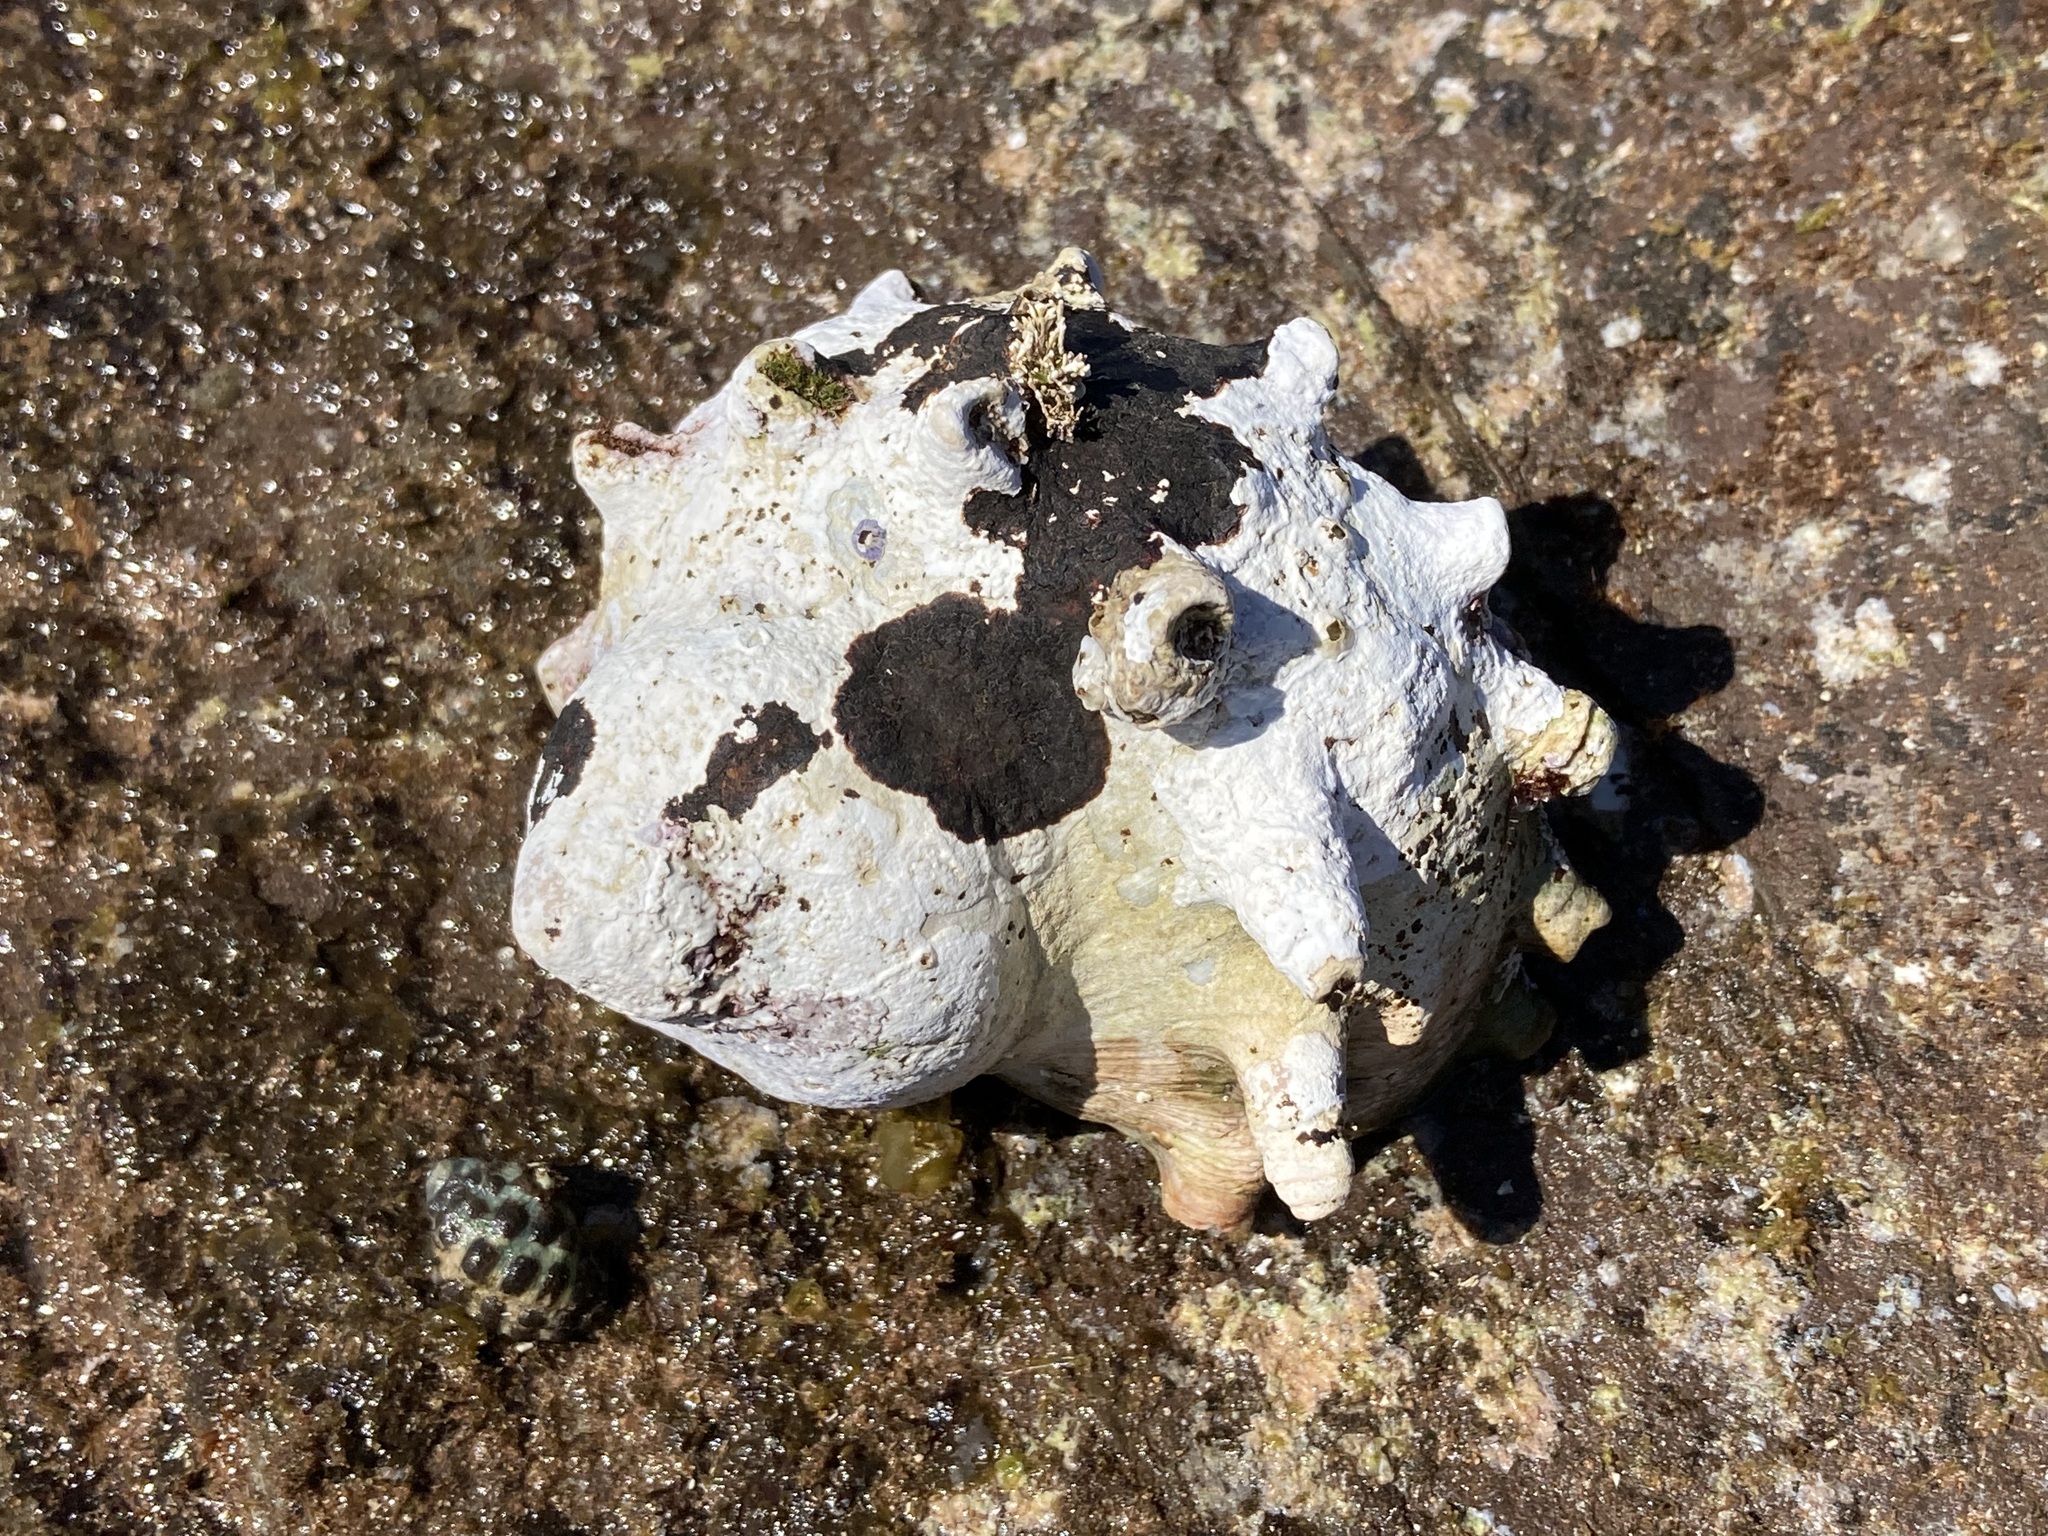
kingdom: Animalia
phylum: Mollusca
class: Gastropoda
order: Trochida
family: Turbinidae
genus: Turbo
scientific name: Turbo militaris
